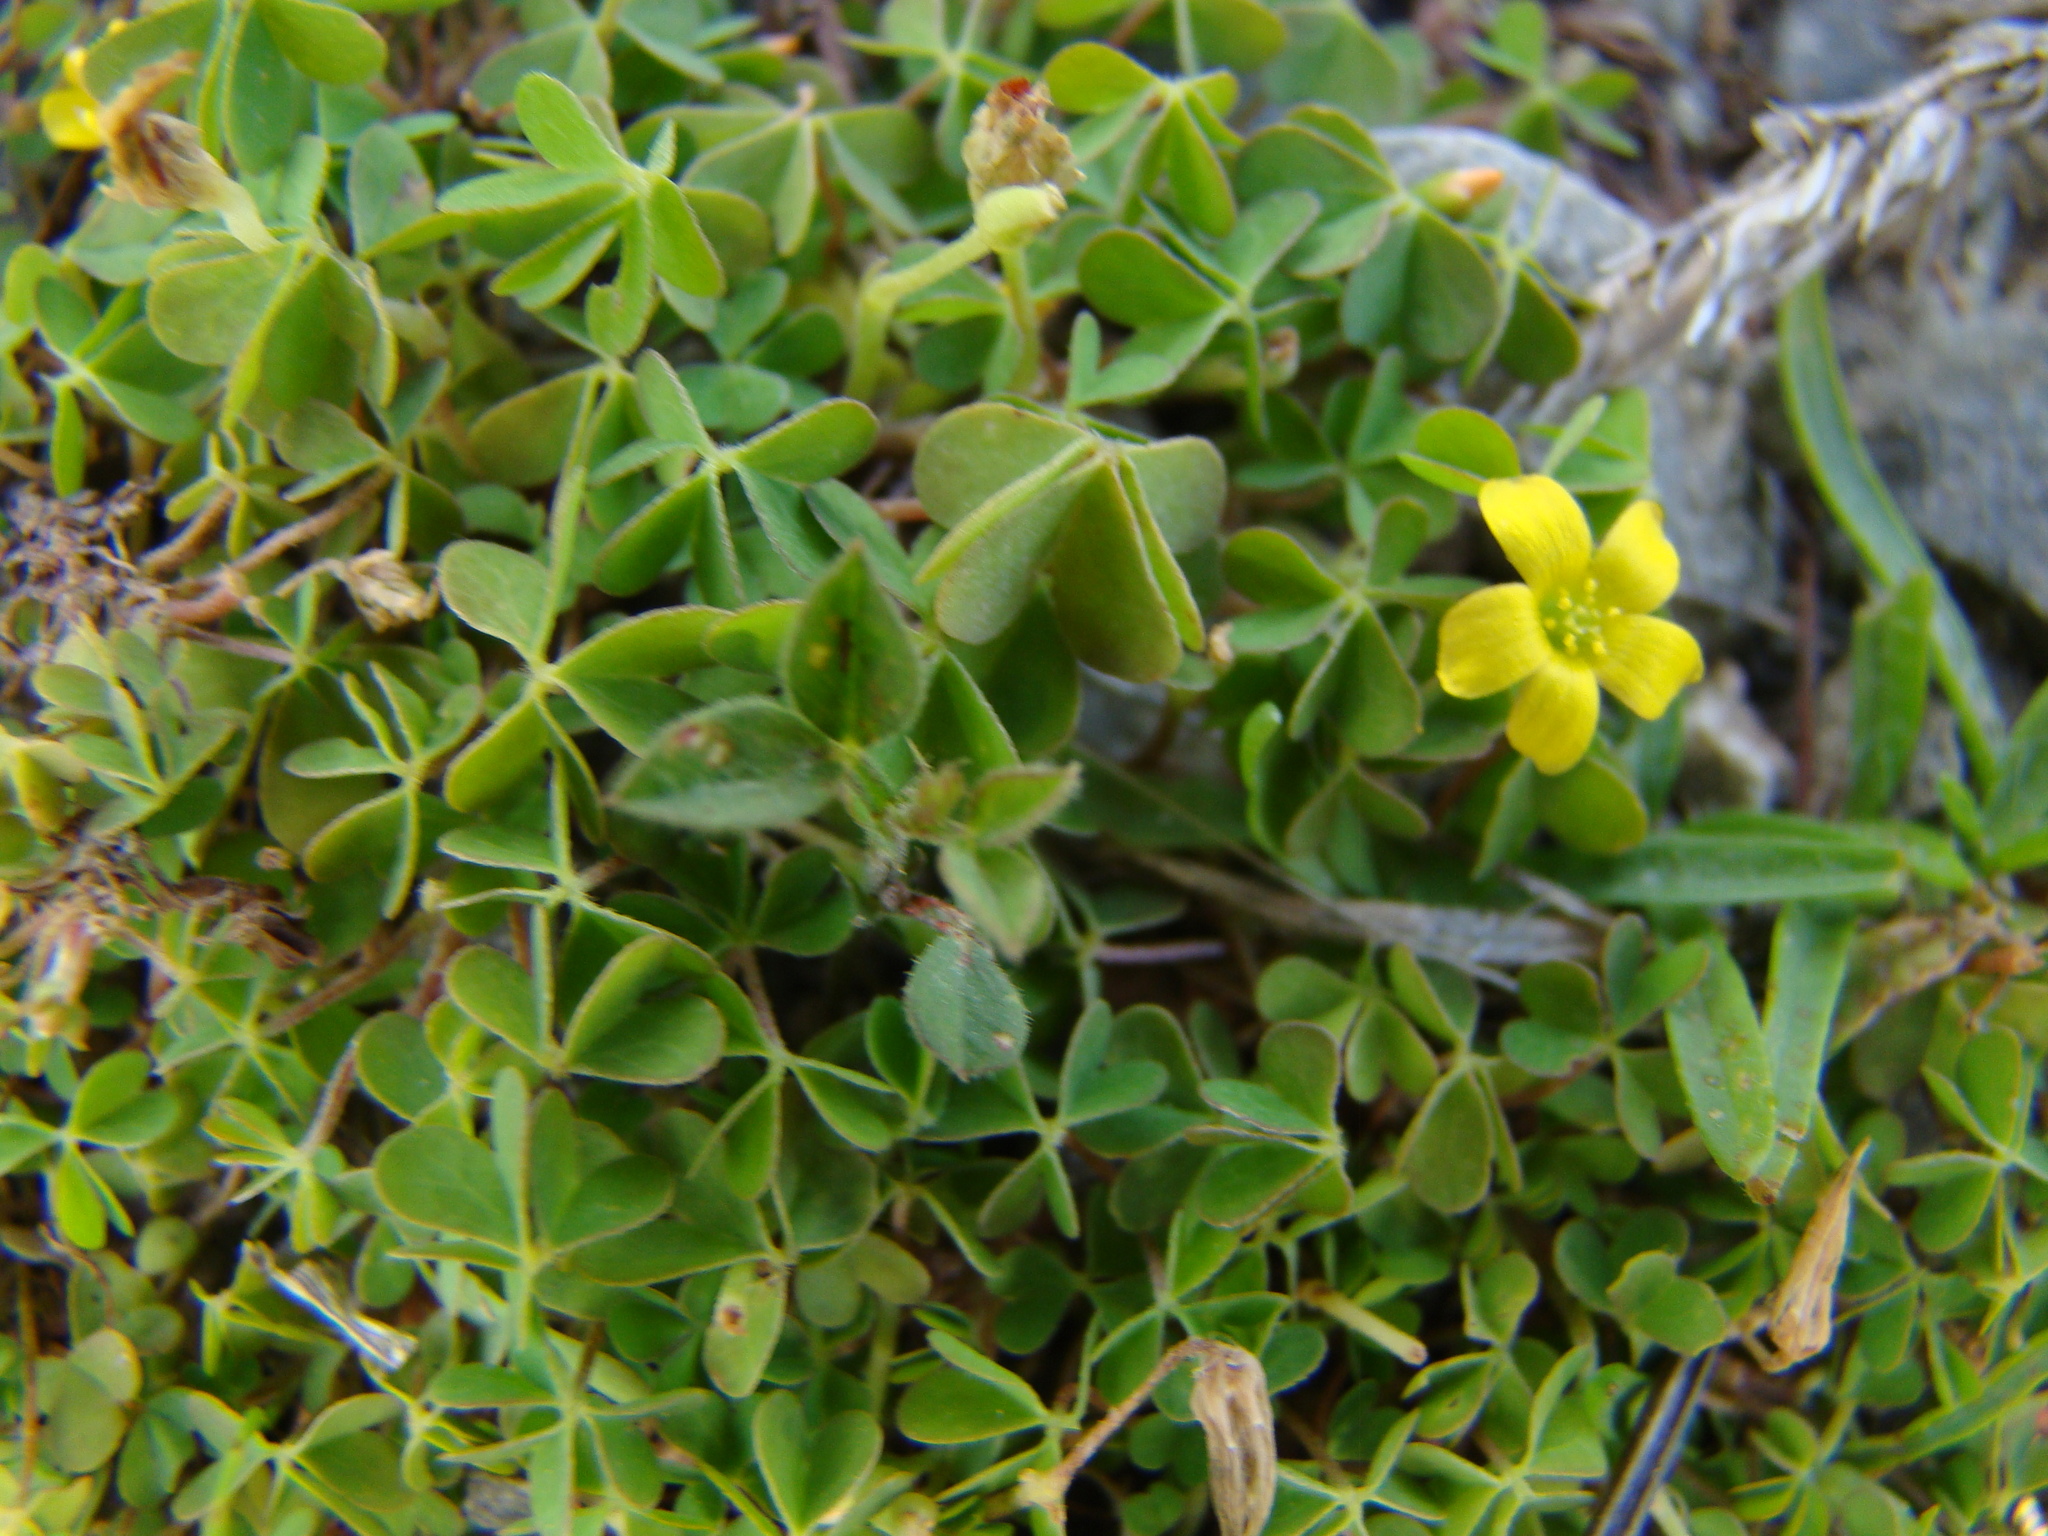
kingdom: Plantae
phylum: Tracheophyta
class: Magnoliopsida
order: Oxalidales
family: Oxalidaceae
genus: Oxalis
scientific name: Oxalis exilis
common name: Least yellow-sorrel
